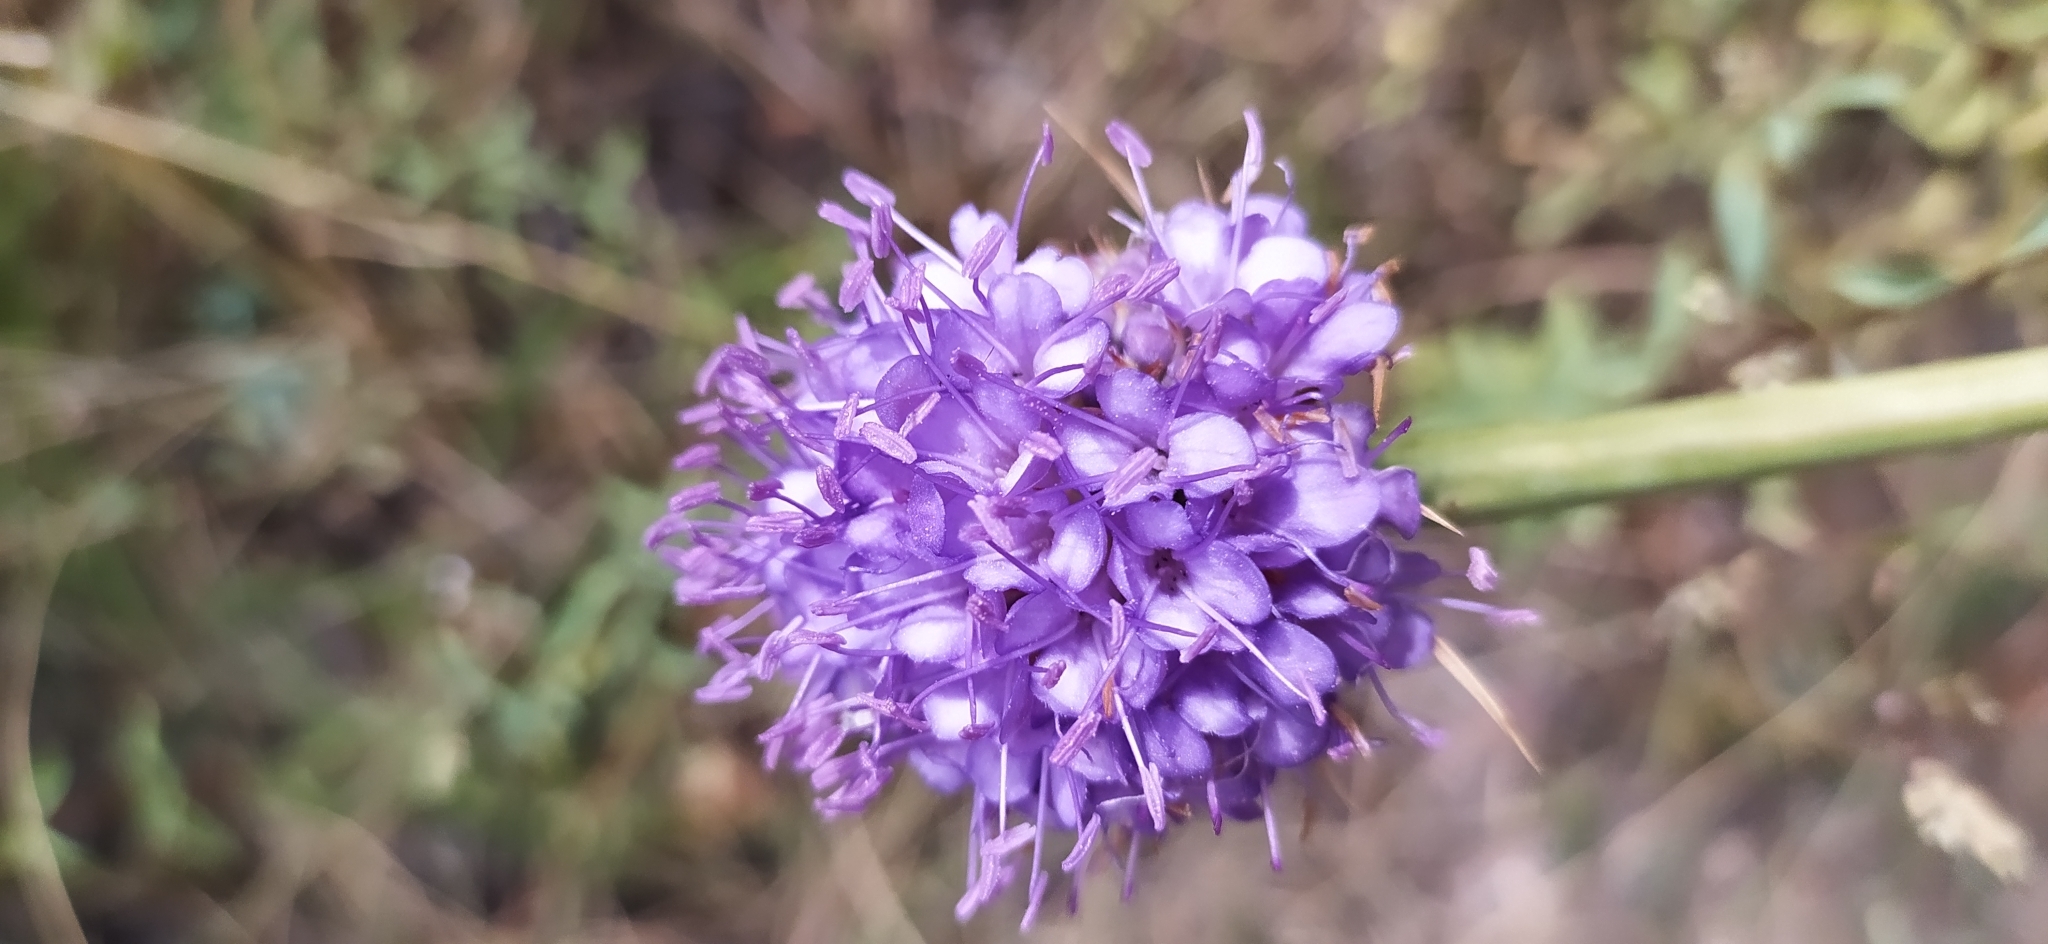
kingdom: Plantae
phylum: Tracheophyta
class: Magnoliopsida
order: Dipsacales
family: Caprifoliaceae
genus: Dipsacus
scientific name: Dipsacus azureus
